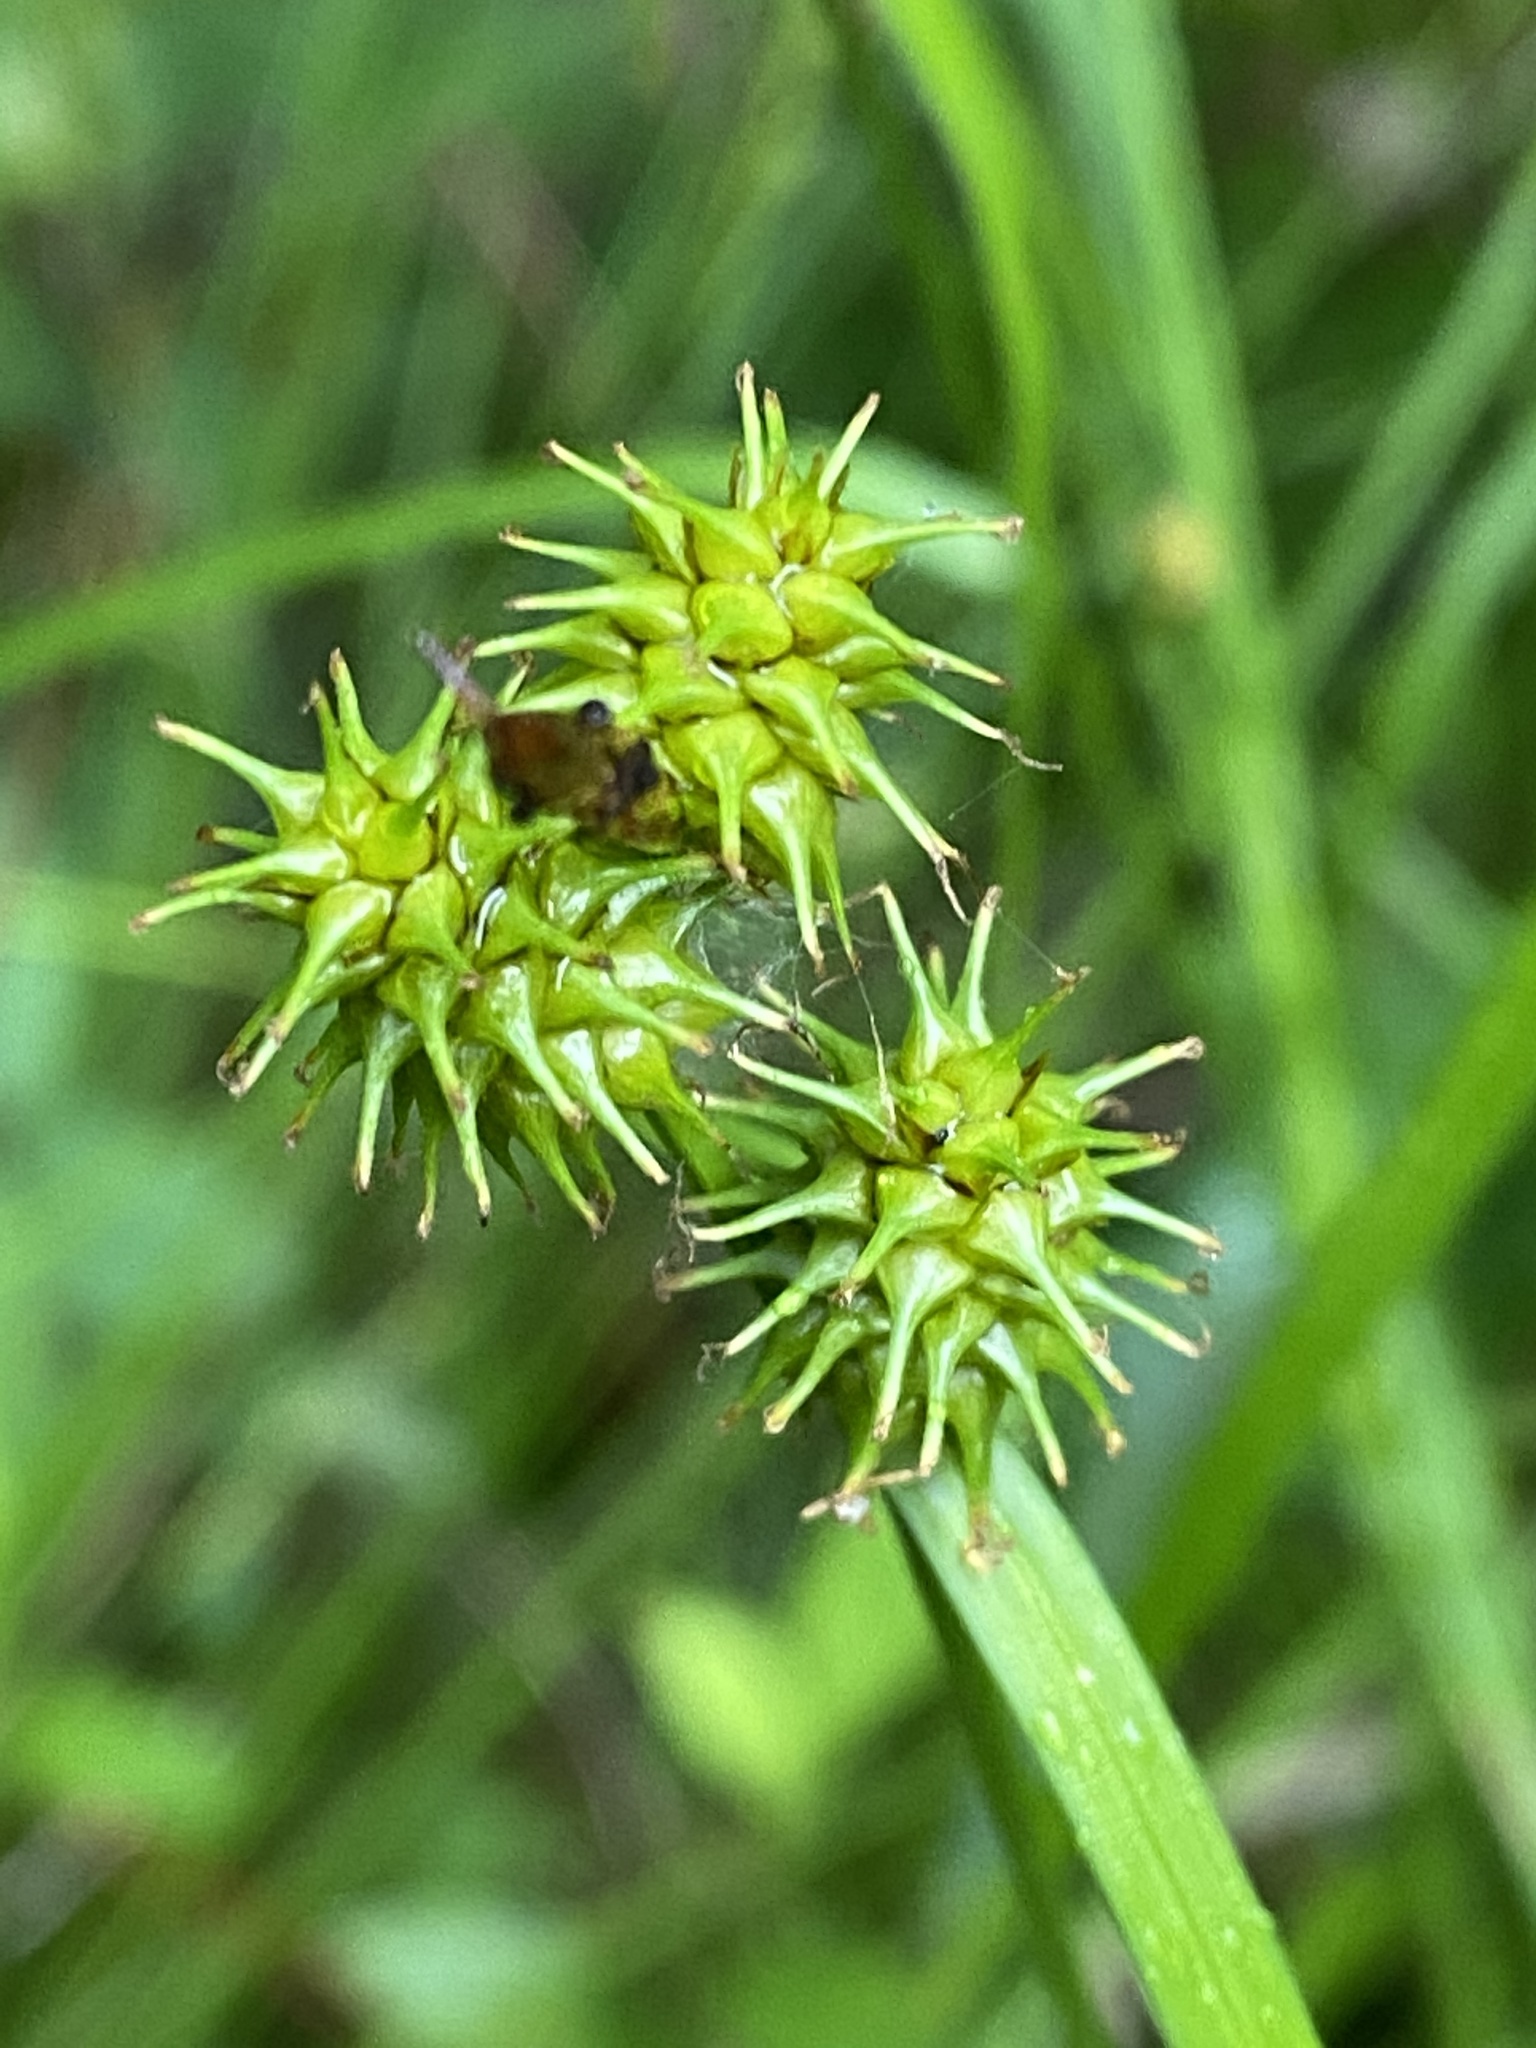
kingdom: Plantae
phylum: Tracheophyta
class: Liliopsida
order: Poales
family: Cyperaceae
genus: Carex
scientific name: Carex flava
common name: Large yellow-sedge
